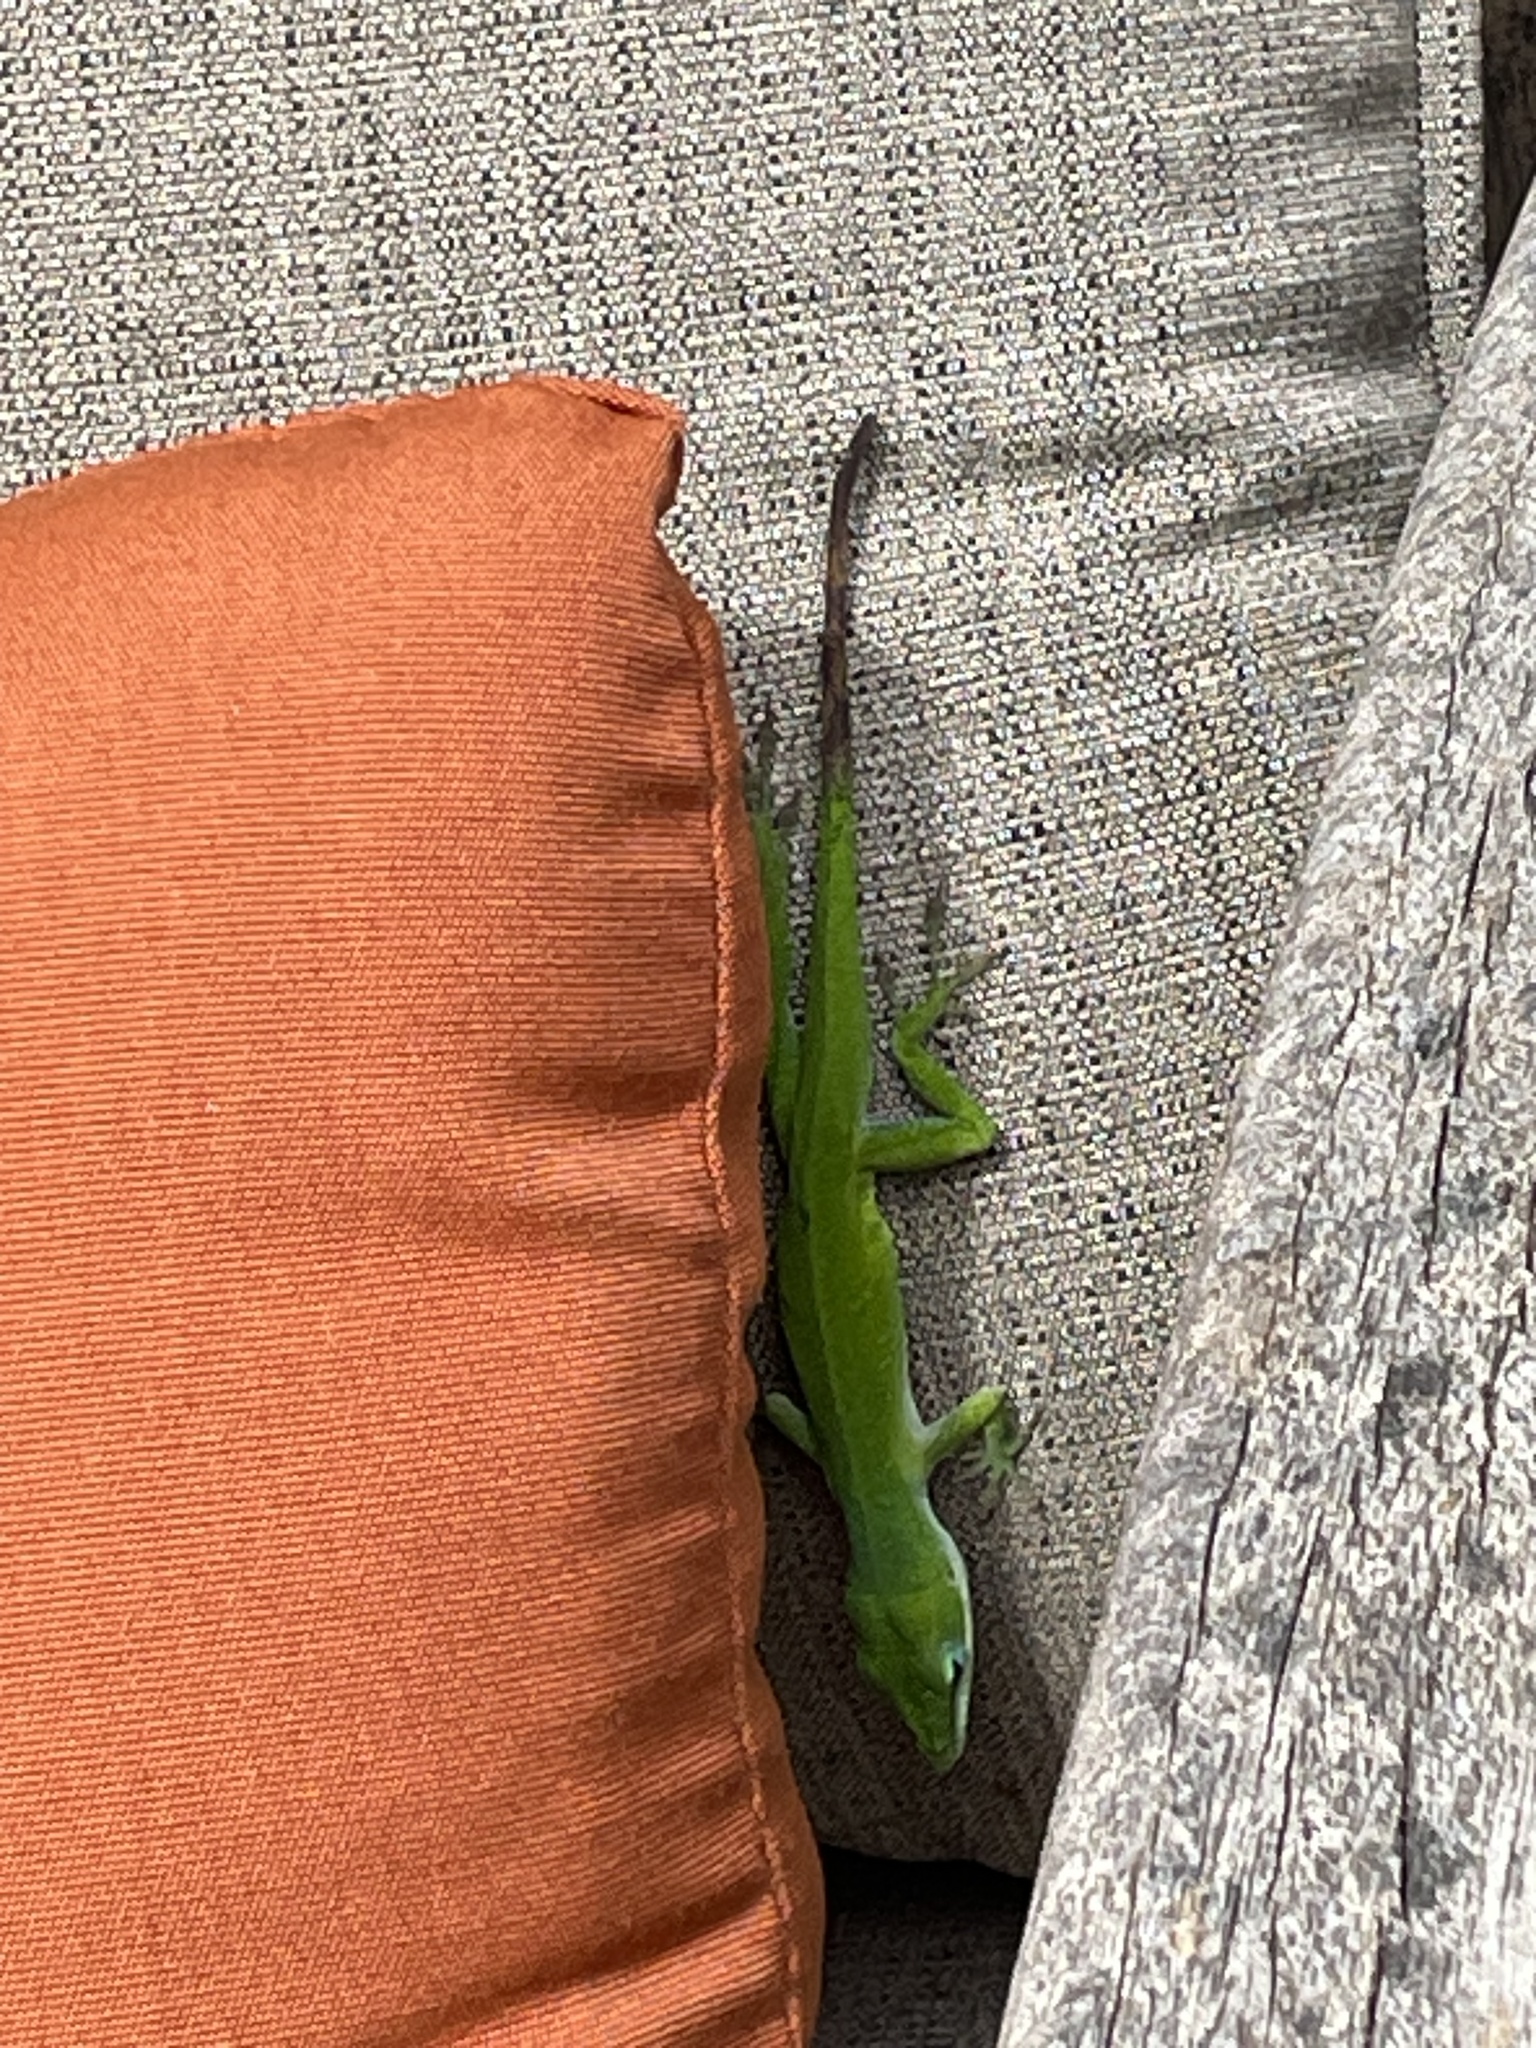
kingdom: Animalia
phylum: Chordata
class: Squamata
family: Dactyloidae
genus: Anolis
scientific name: Anolis carolinensis
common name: Green anole
